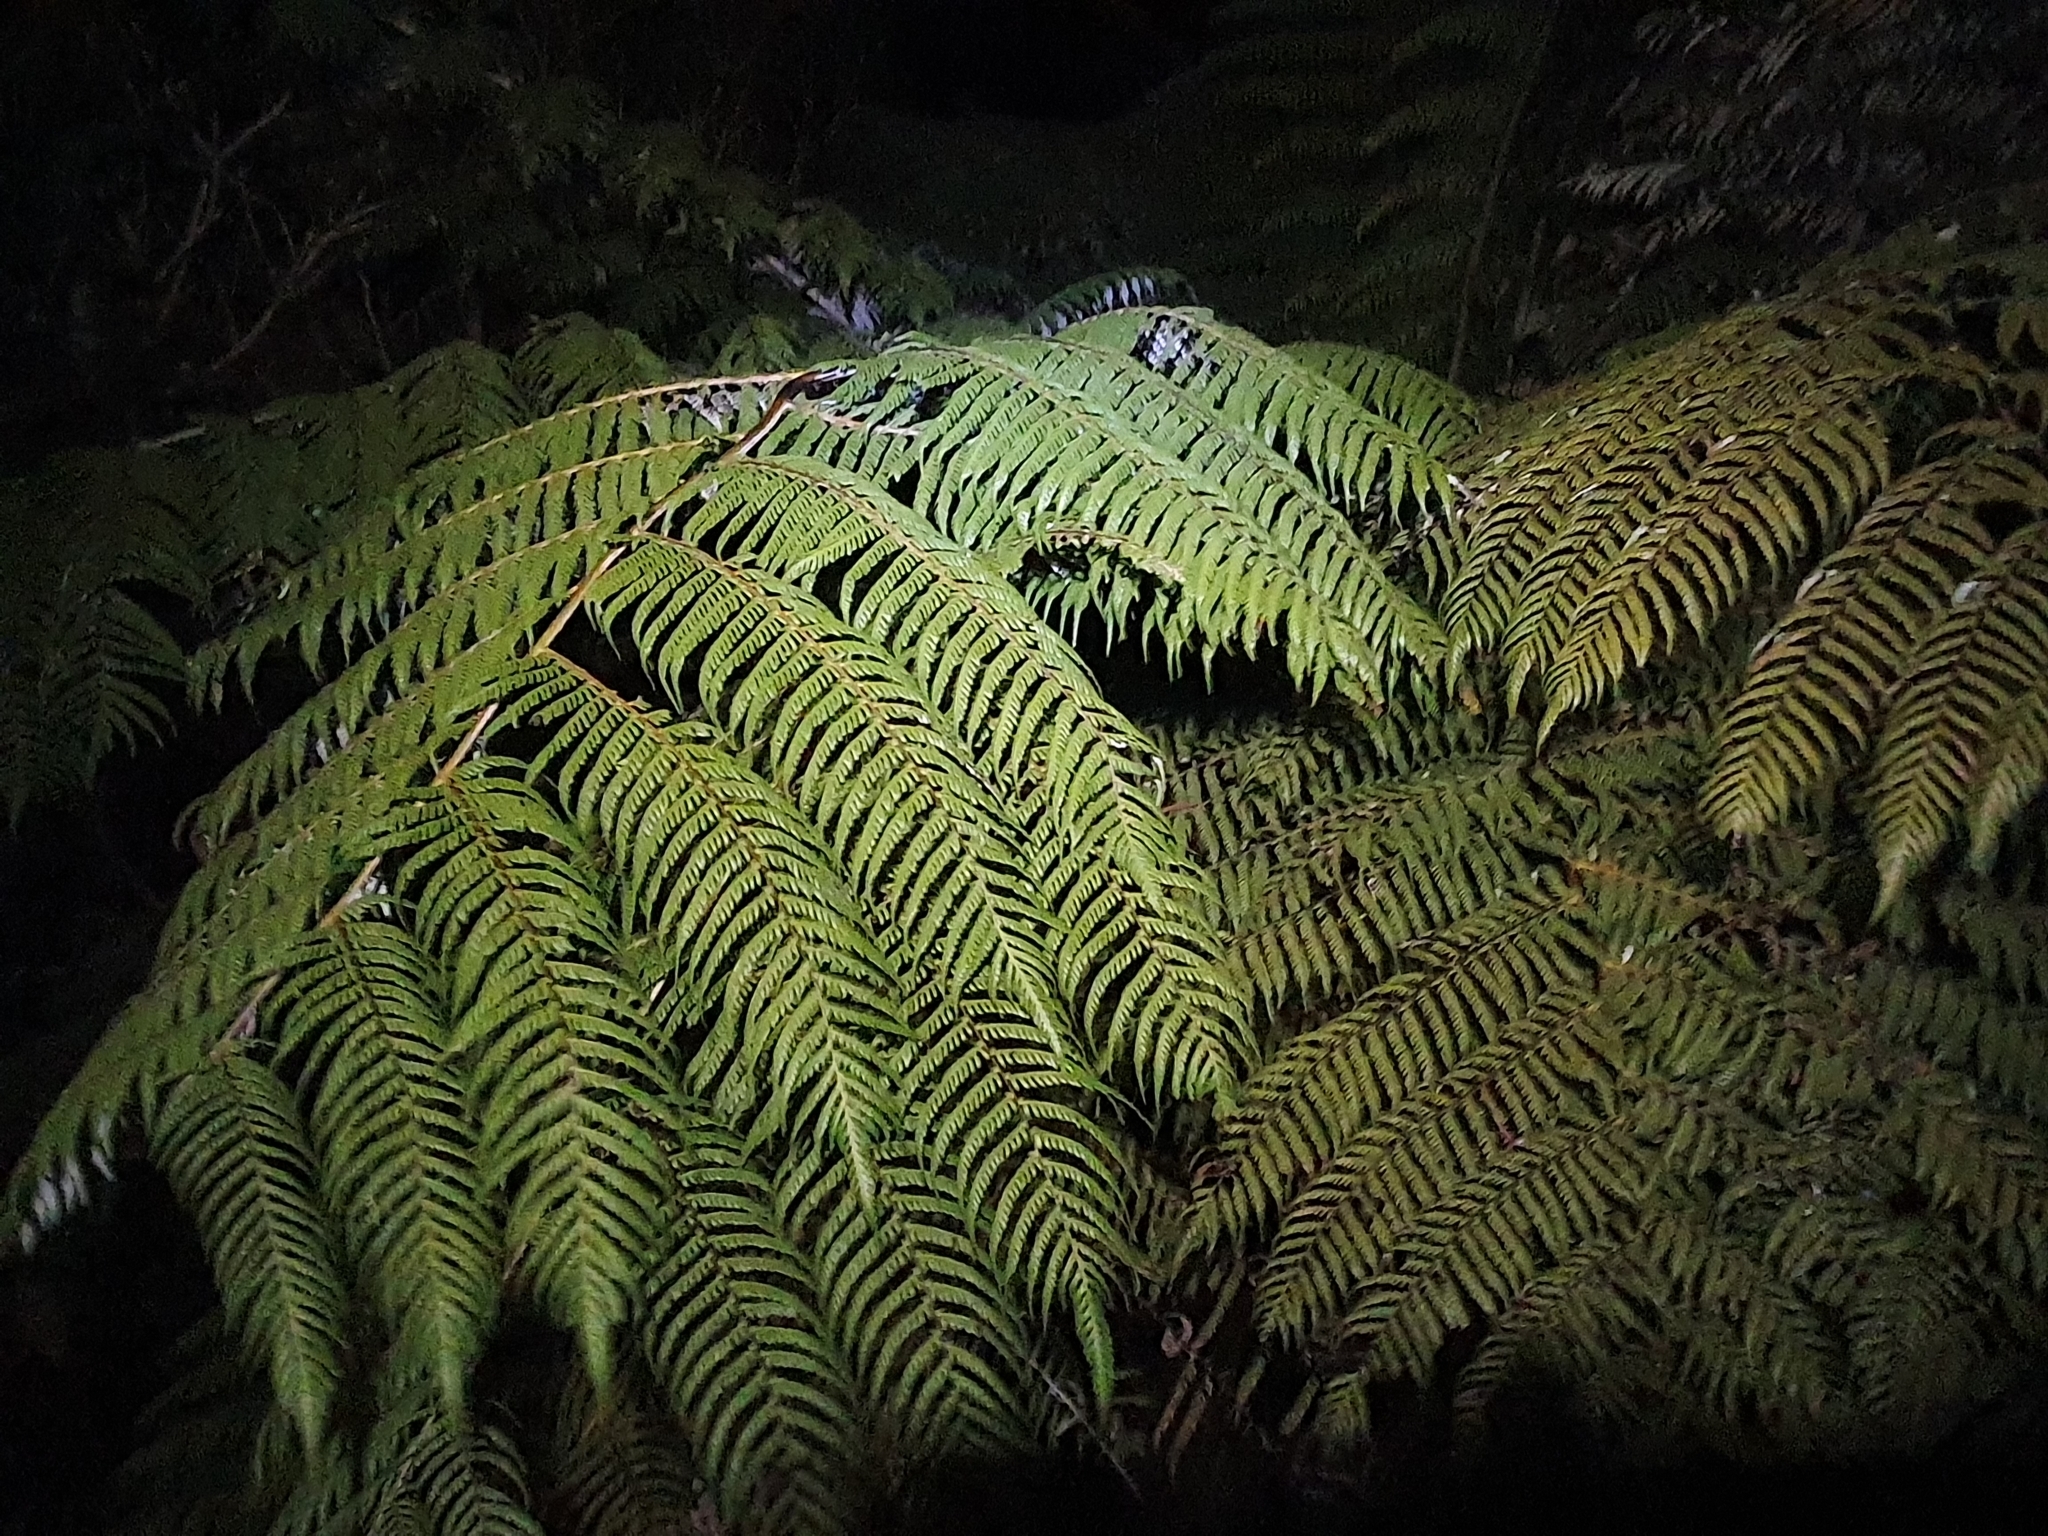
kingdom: Plantae
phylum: Tracheophyta
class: Polypodiopsida
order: Cyatheales
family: Cyatheaceae
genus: Alsophila
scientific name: Alsophila dealbata
